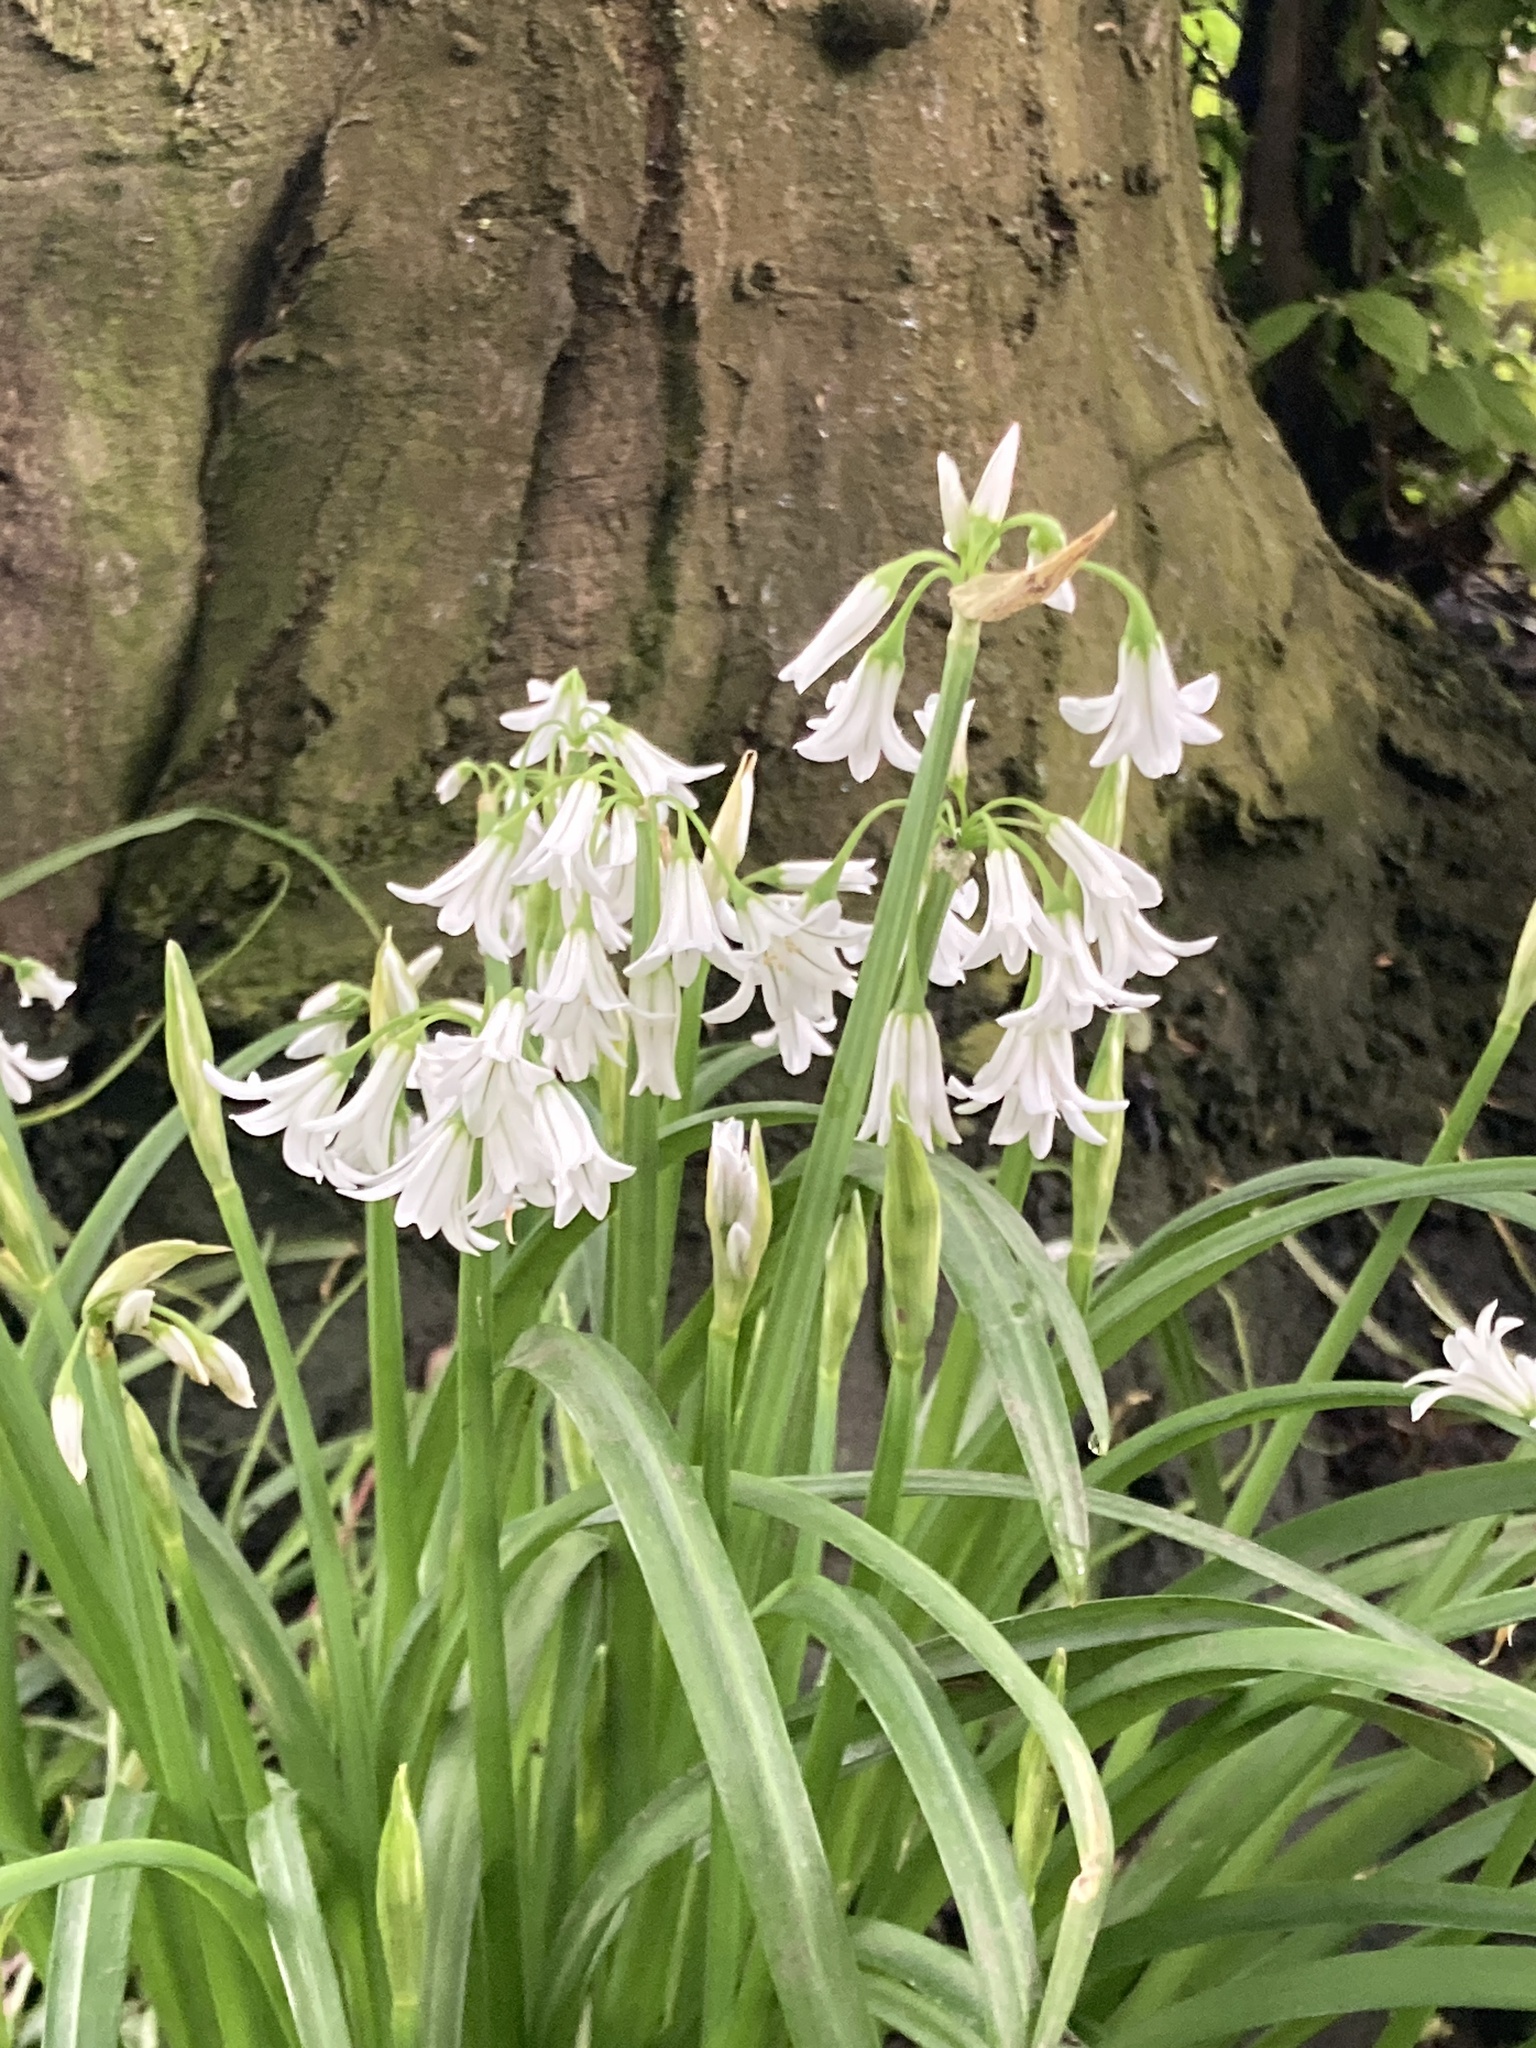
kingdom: Plantae
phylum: Tracheophyta
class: Liliopsida
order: Asparagales
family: Amaryllidaceae
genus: Allium
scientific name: Allium triquetrum
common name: Three-cornered garlic
